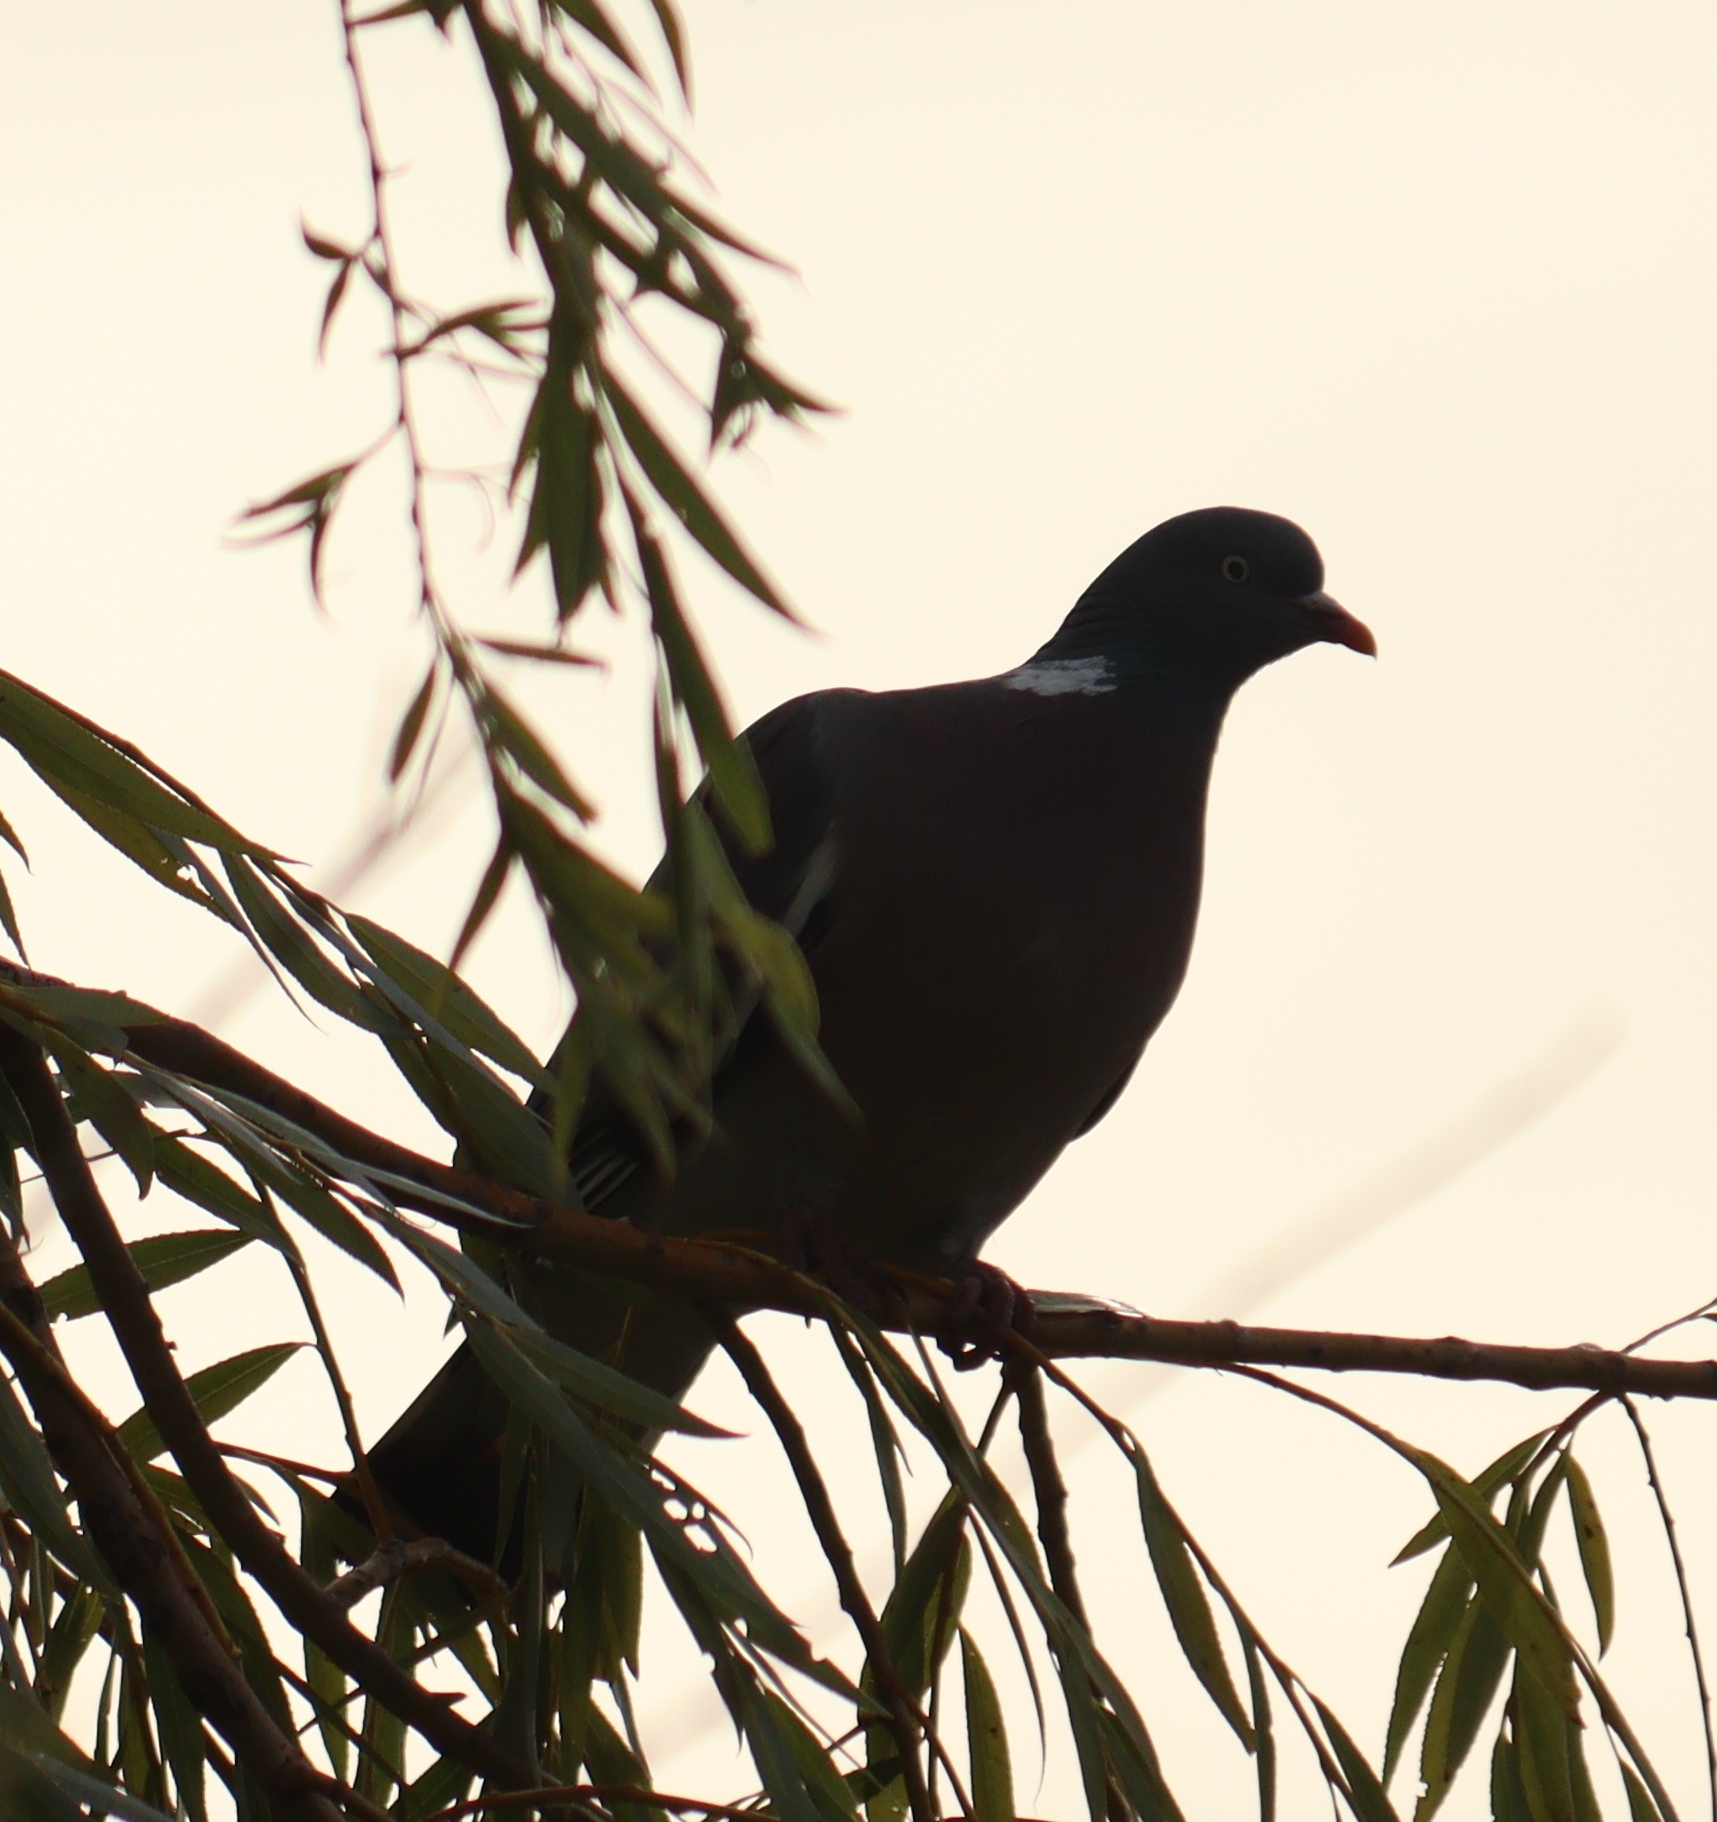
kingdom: Animalia
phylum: Chordata
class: Aves
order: Columbiformes
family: Columbidae
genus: Columba
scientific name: Columba palumbus
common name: Common wood pigeon
